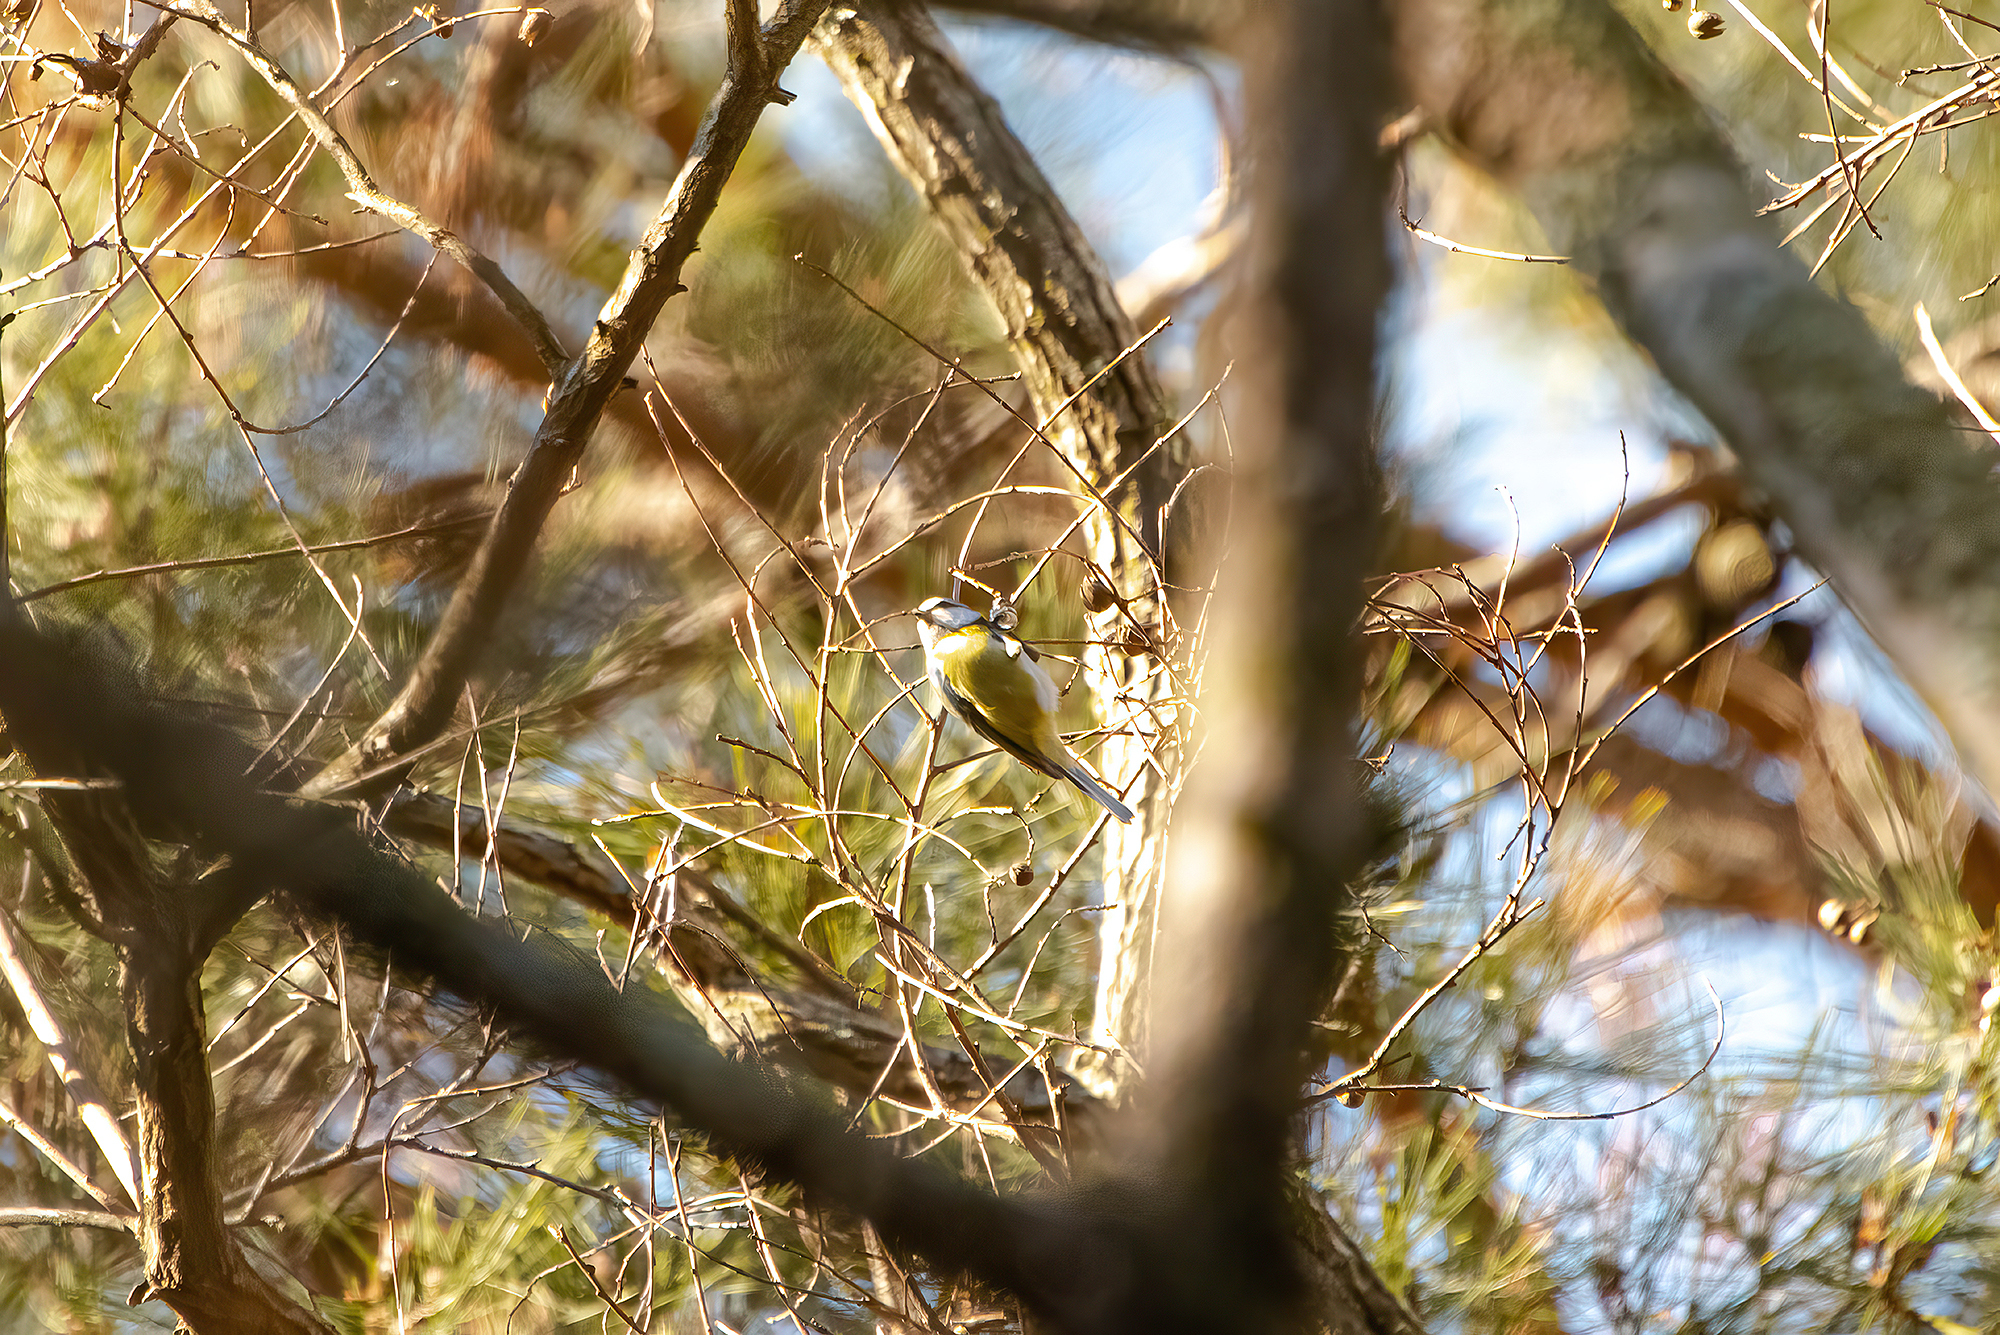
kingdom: Animalia
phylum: Chordata
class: Aves
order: Passeriformes
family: Paridae
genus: Cyanistes
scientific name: Cyanistes caeruleus
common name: Eurasian blue tit
